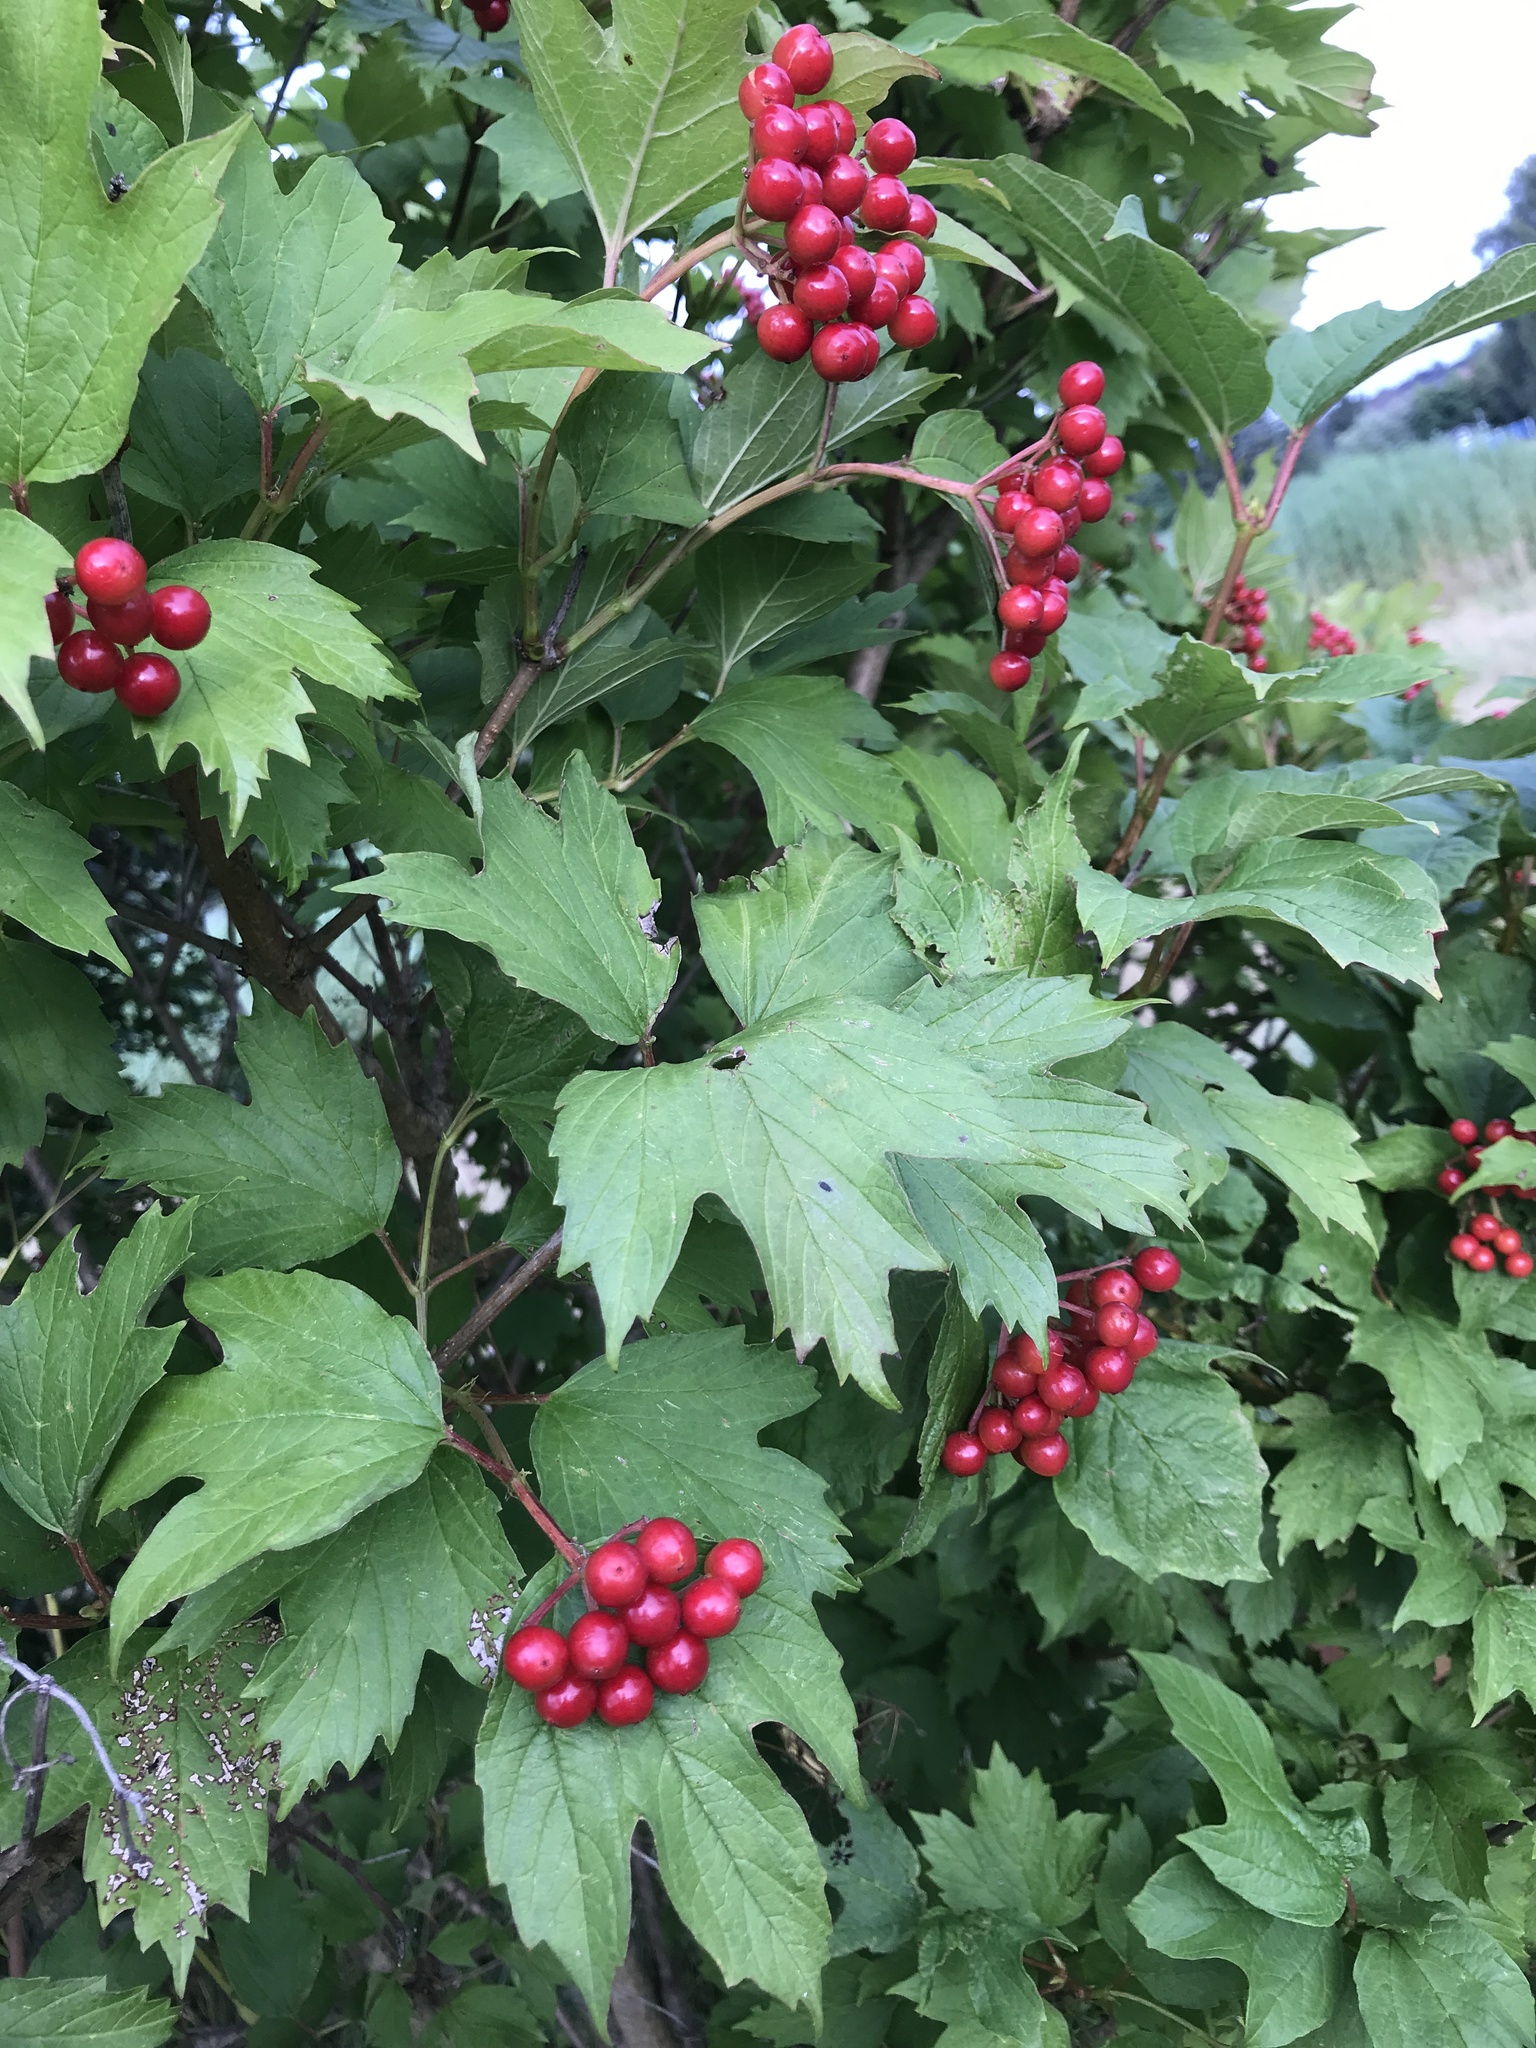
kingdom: Plantae
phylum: Tracheophyta
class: Magnoliopsida
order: Dipsacales
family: Viburnaceae
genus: Viburnum
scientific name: Viburnum opulus
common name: Guelder-rose
